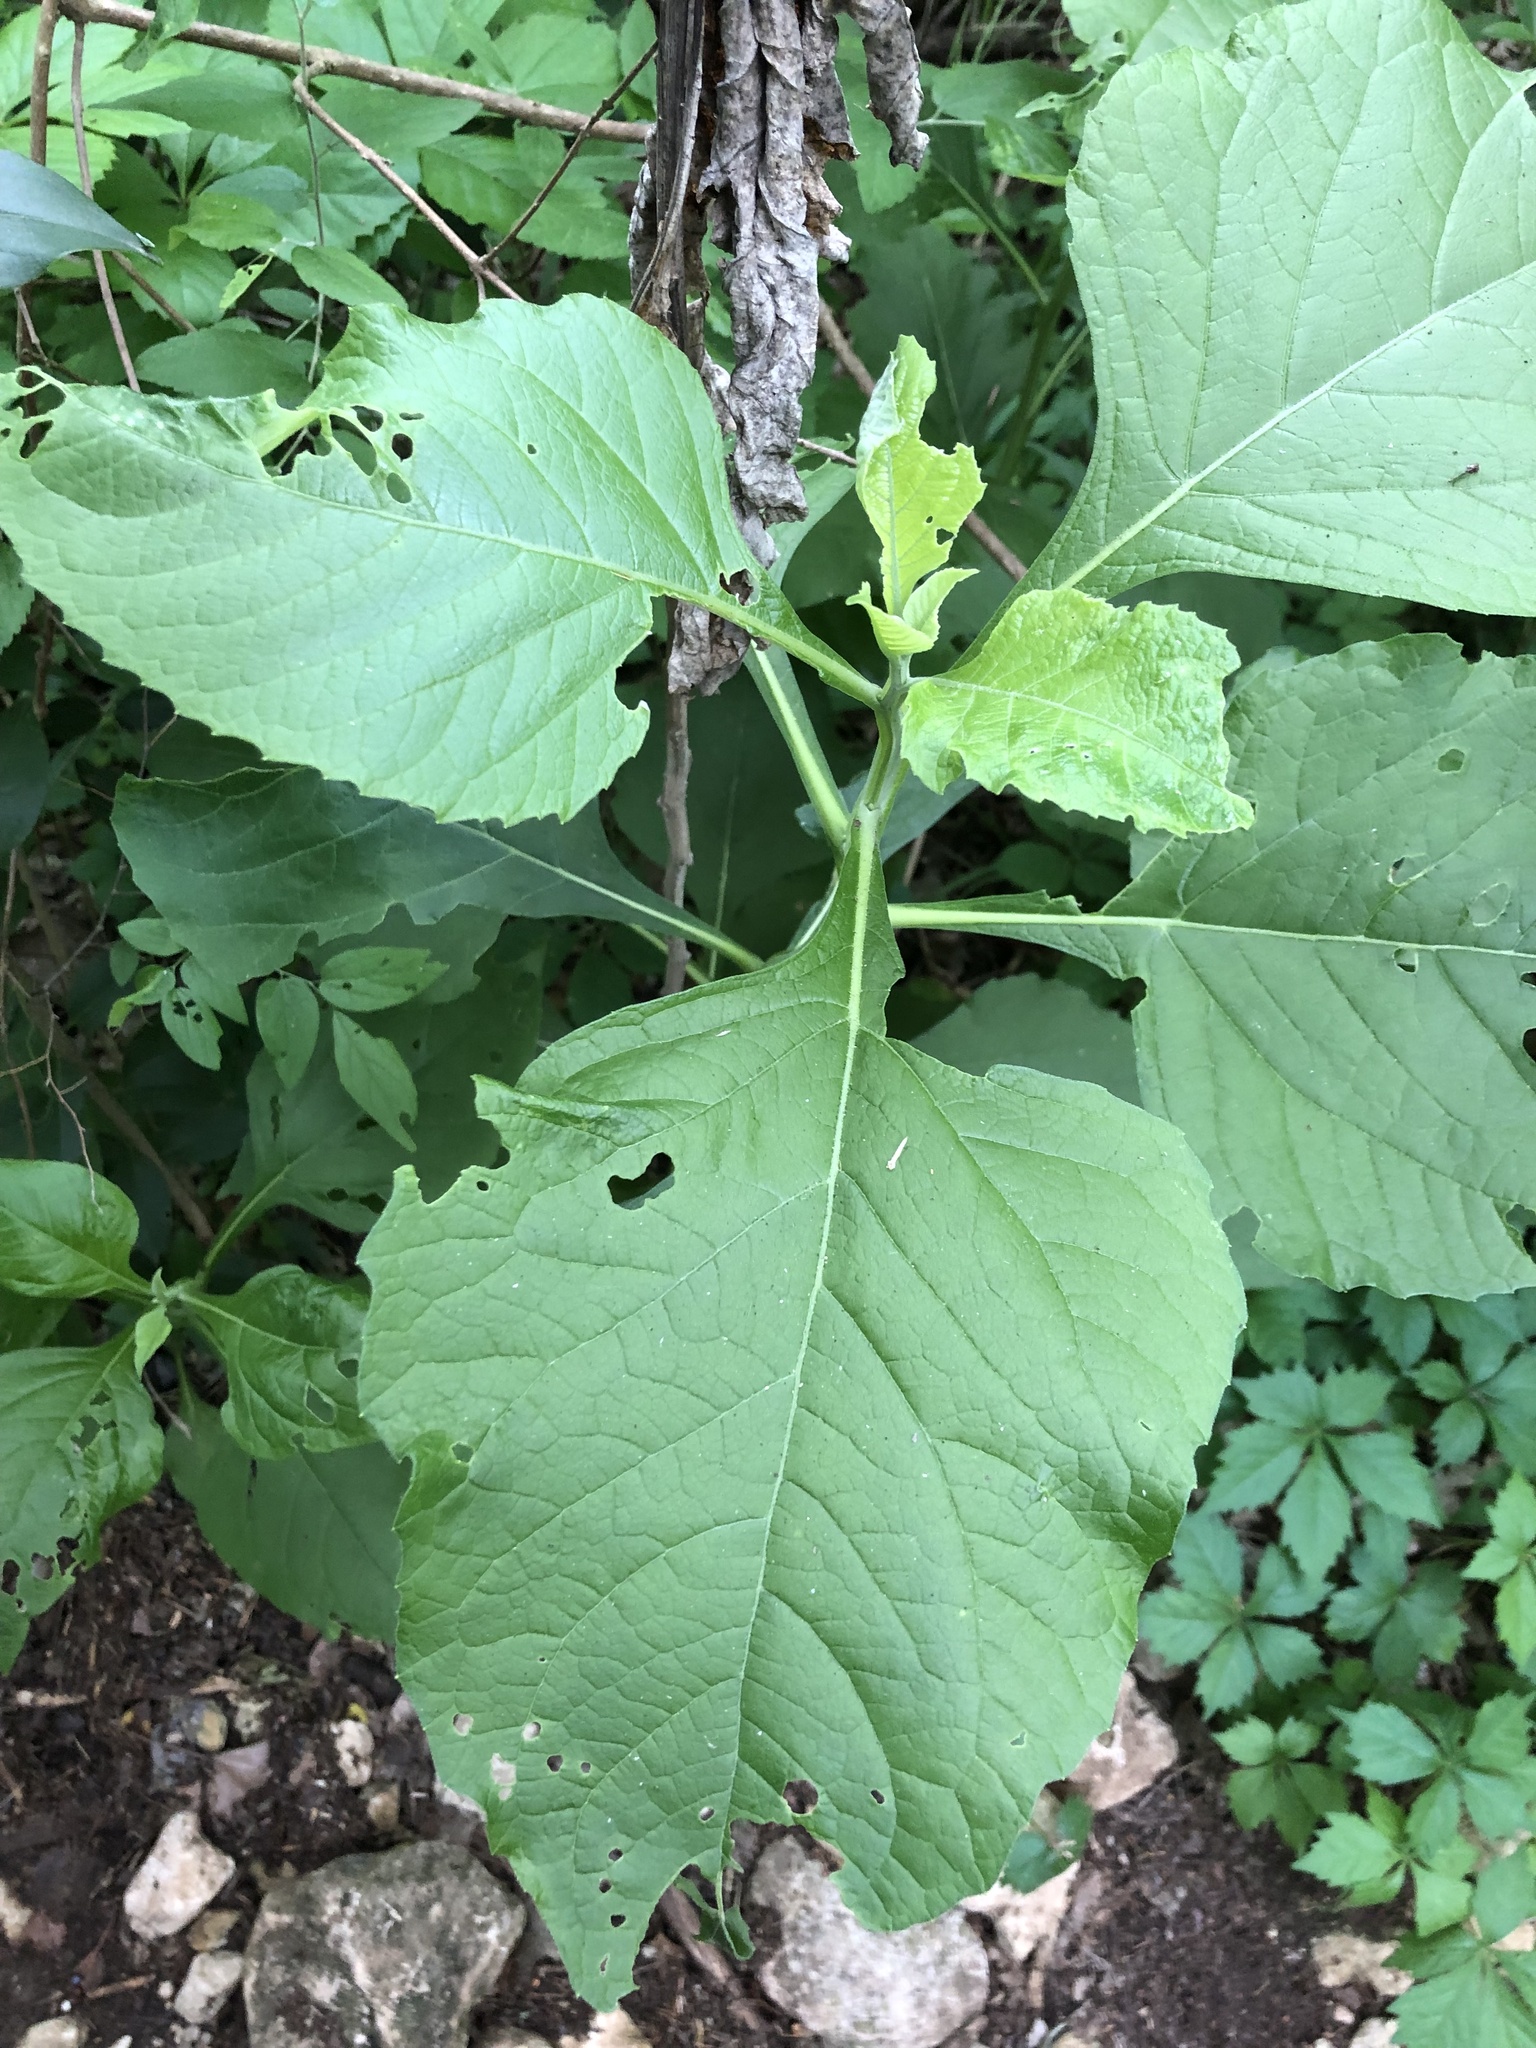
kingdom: Plantae
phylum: Tracheophyta
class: Magnoliopsida
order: Asterales
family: Asteraceae
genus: Verbesina
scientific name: Verbesina virginica
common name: Frostweed
